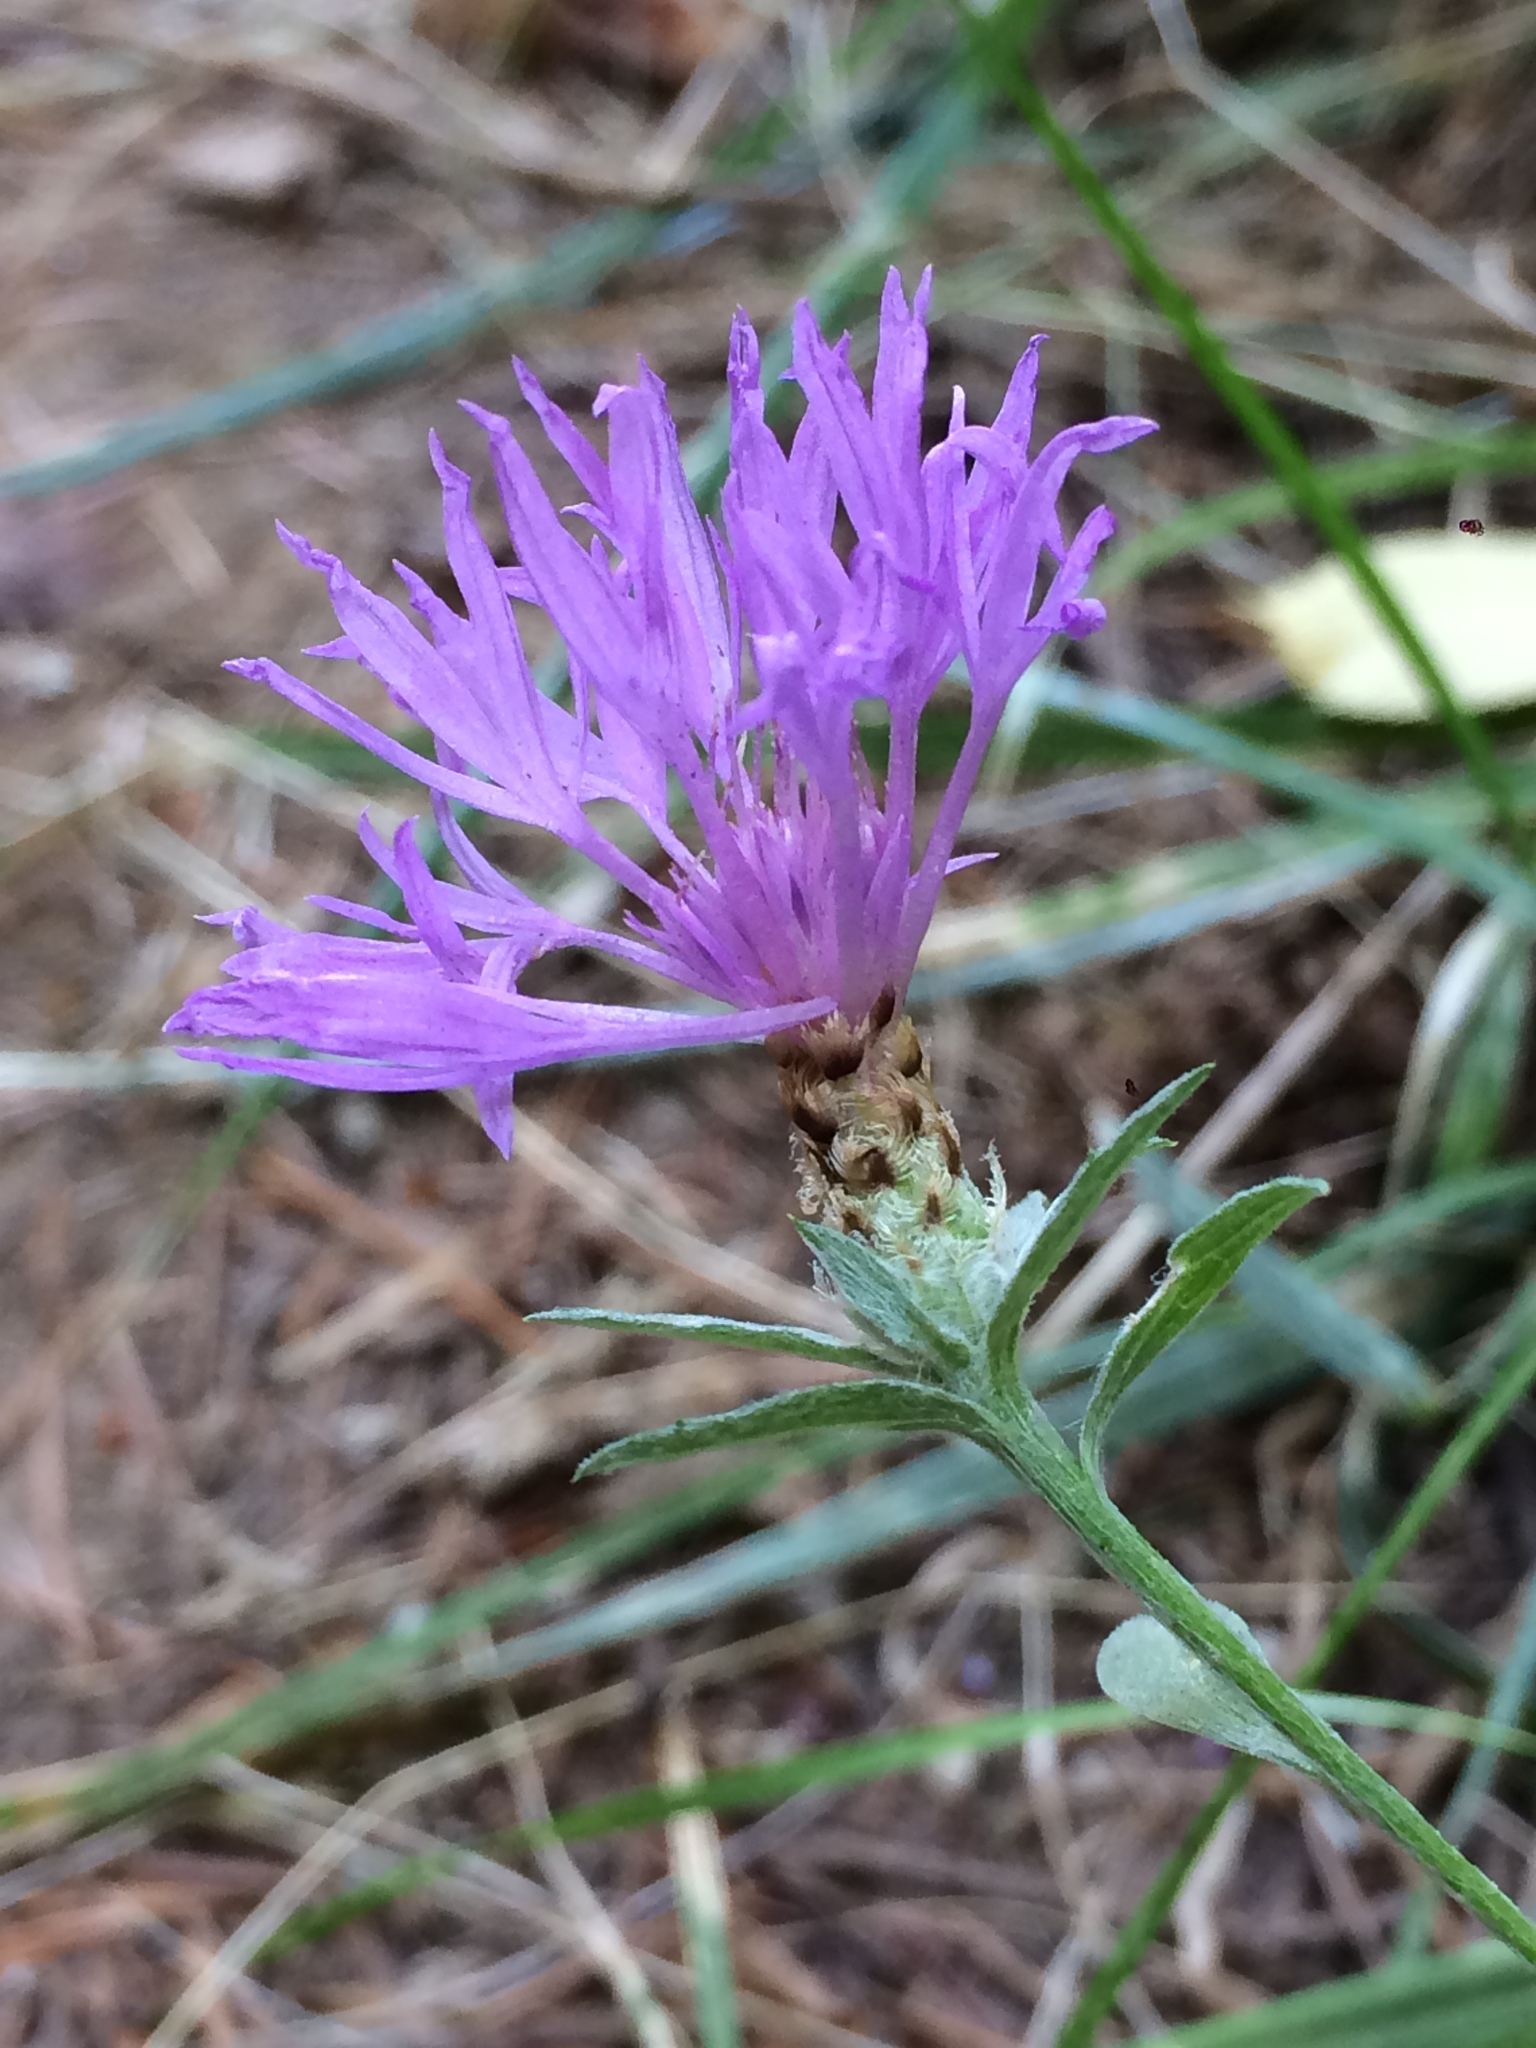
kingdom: Plantae
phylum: Tracheophyta
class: Magnoliopsida
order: Asterales
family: Asteraceae
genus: Centaurea
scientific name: Centaurea moncktonii
